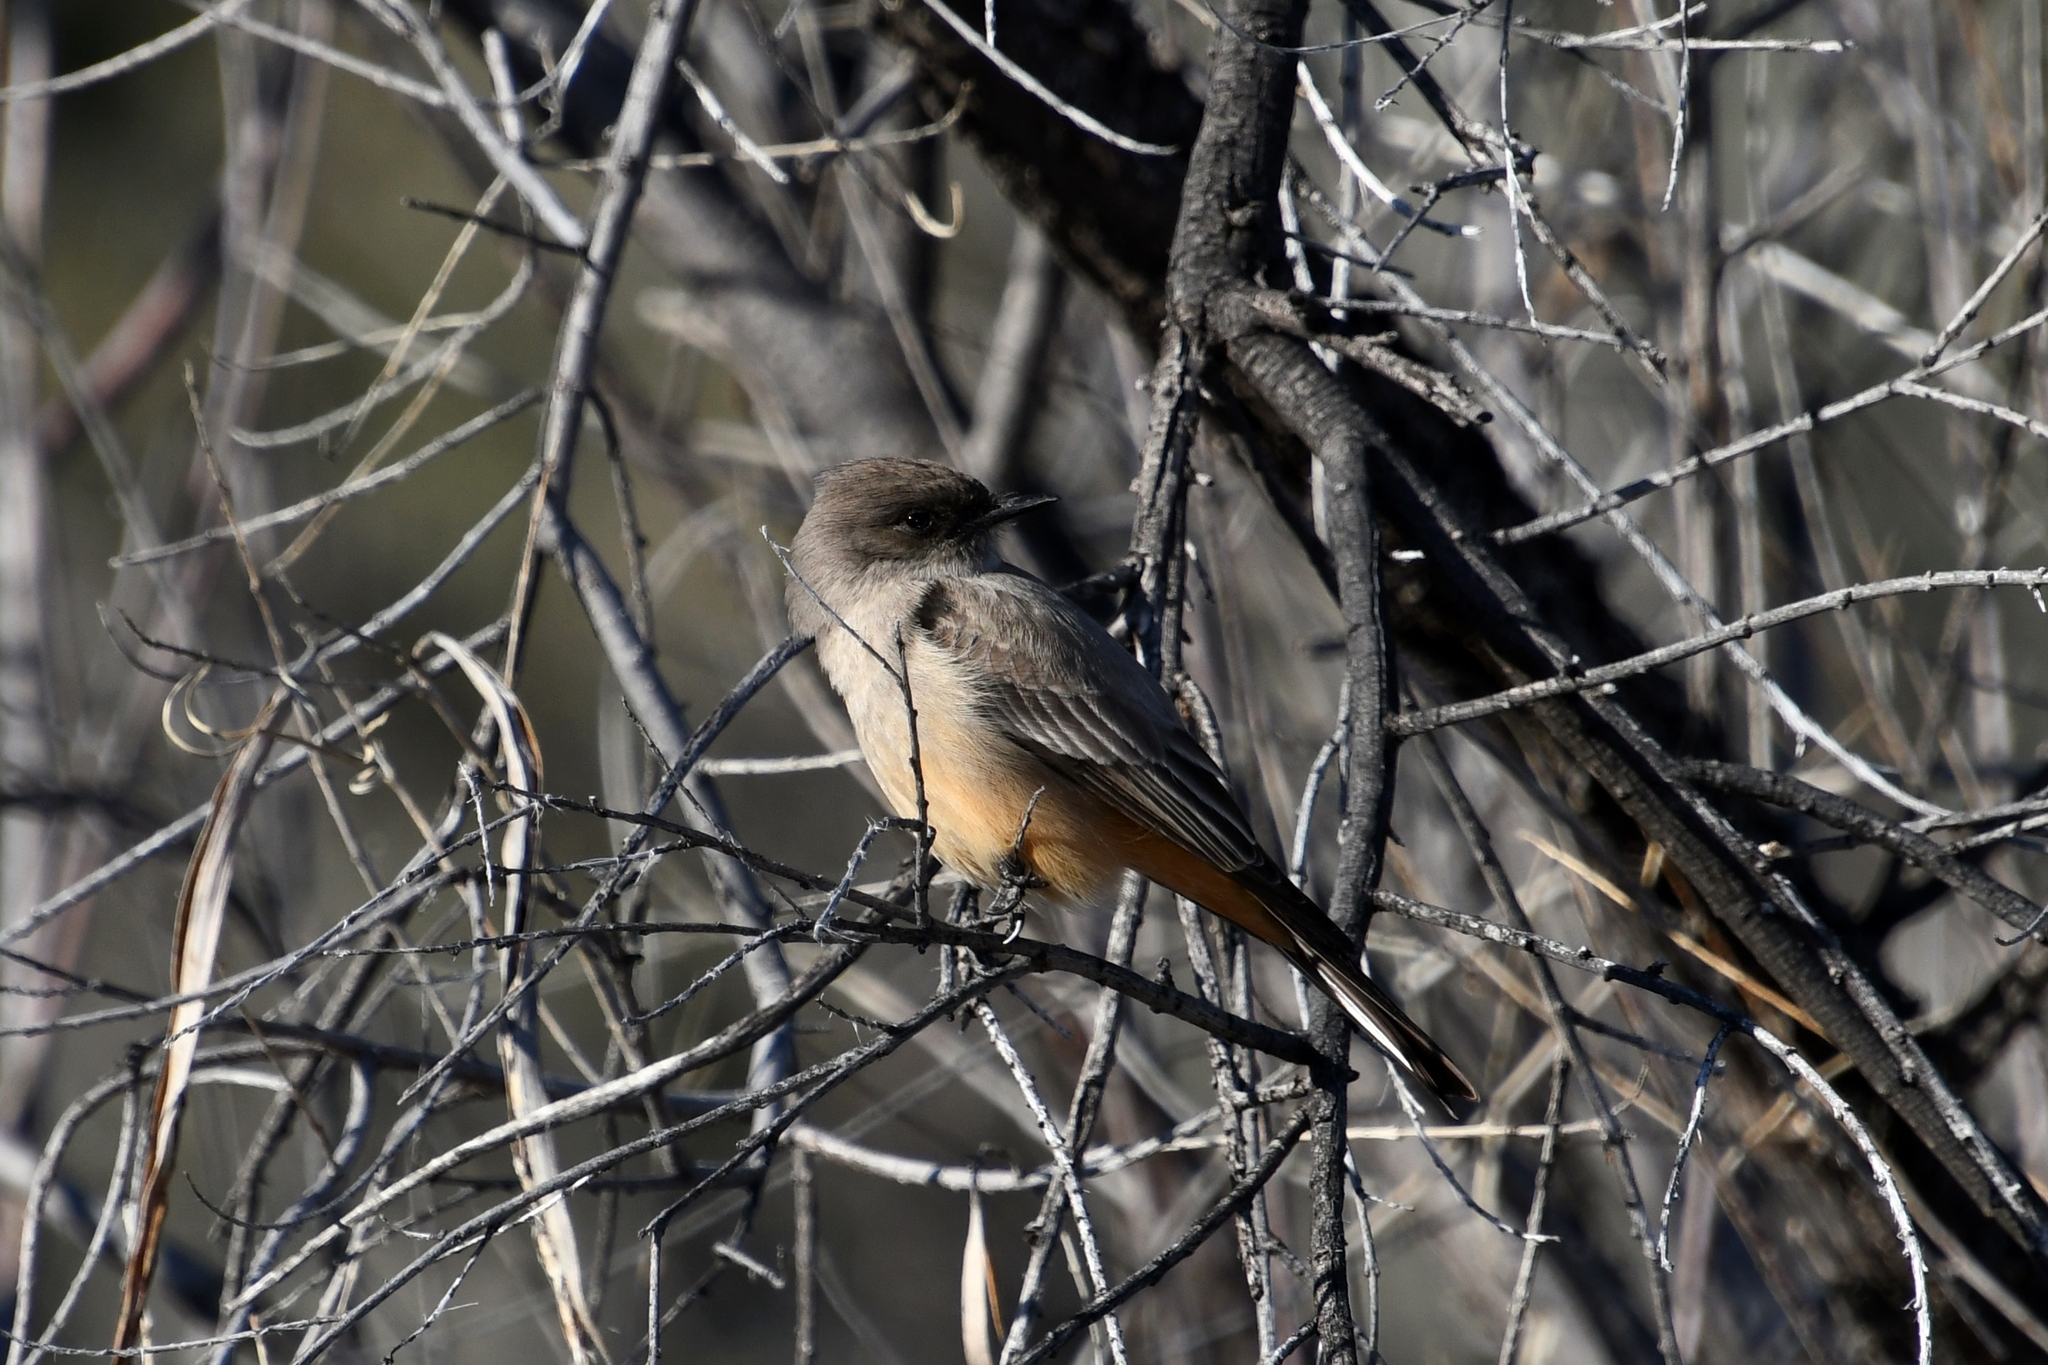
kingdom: Animalia
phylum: Chordata
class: Aves
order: Passeriformes
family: Tyrannidae
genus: Sayornis
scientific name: Sayornis saya
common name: Say's phoebe
